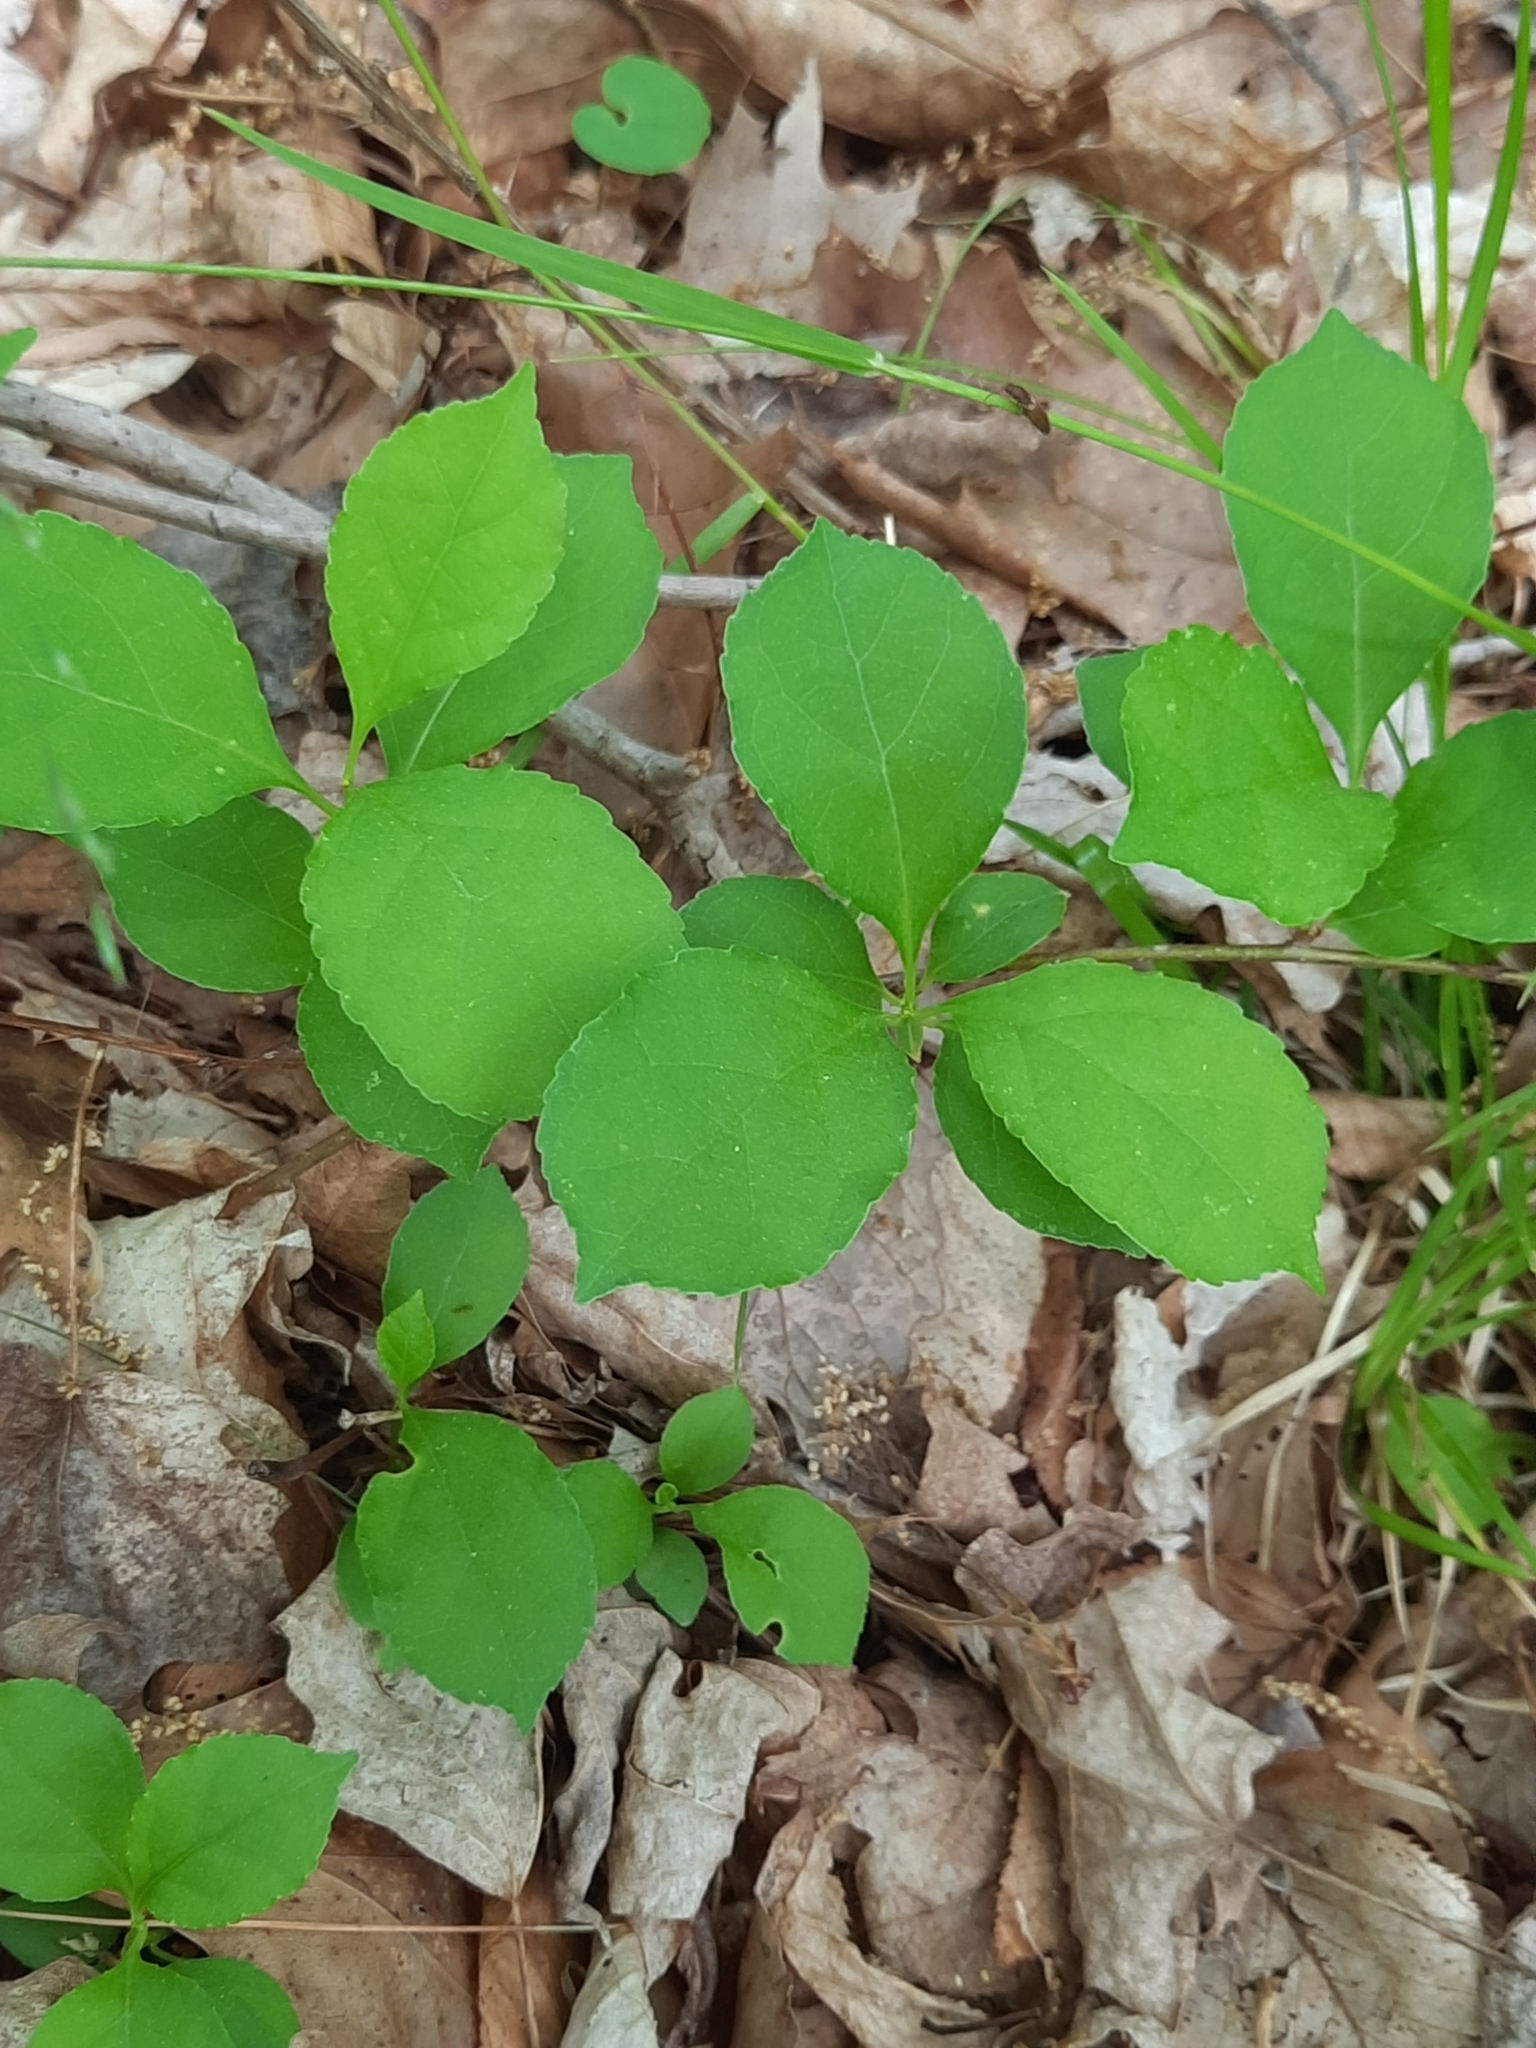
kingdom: Plantae
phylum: Tracheophyta
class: Magnoliopsida
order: Celastrales
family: Celastraceae
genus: Celastrus
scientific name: Celastrus orbiculatus
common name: Oriental bittersweet
